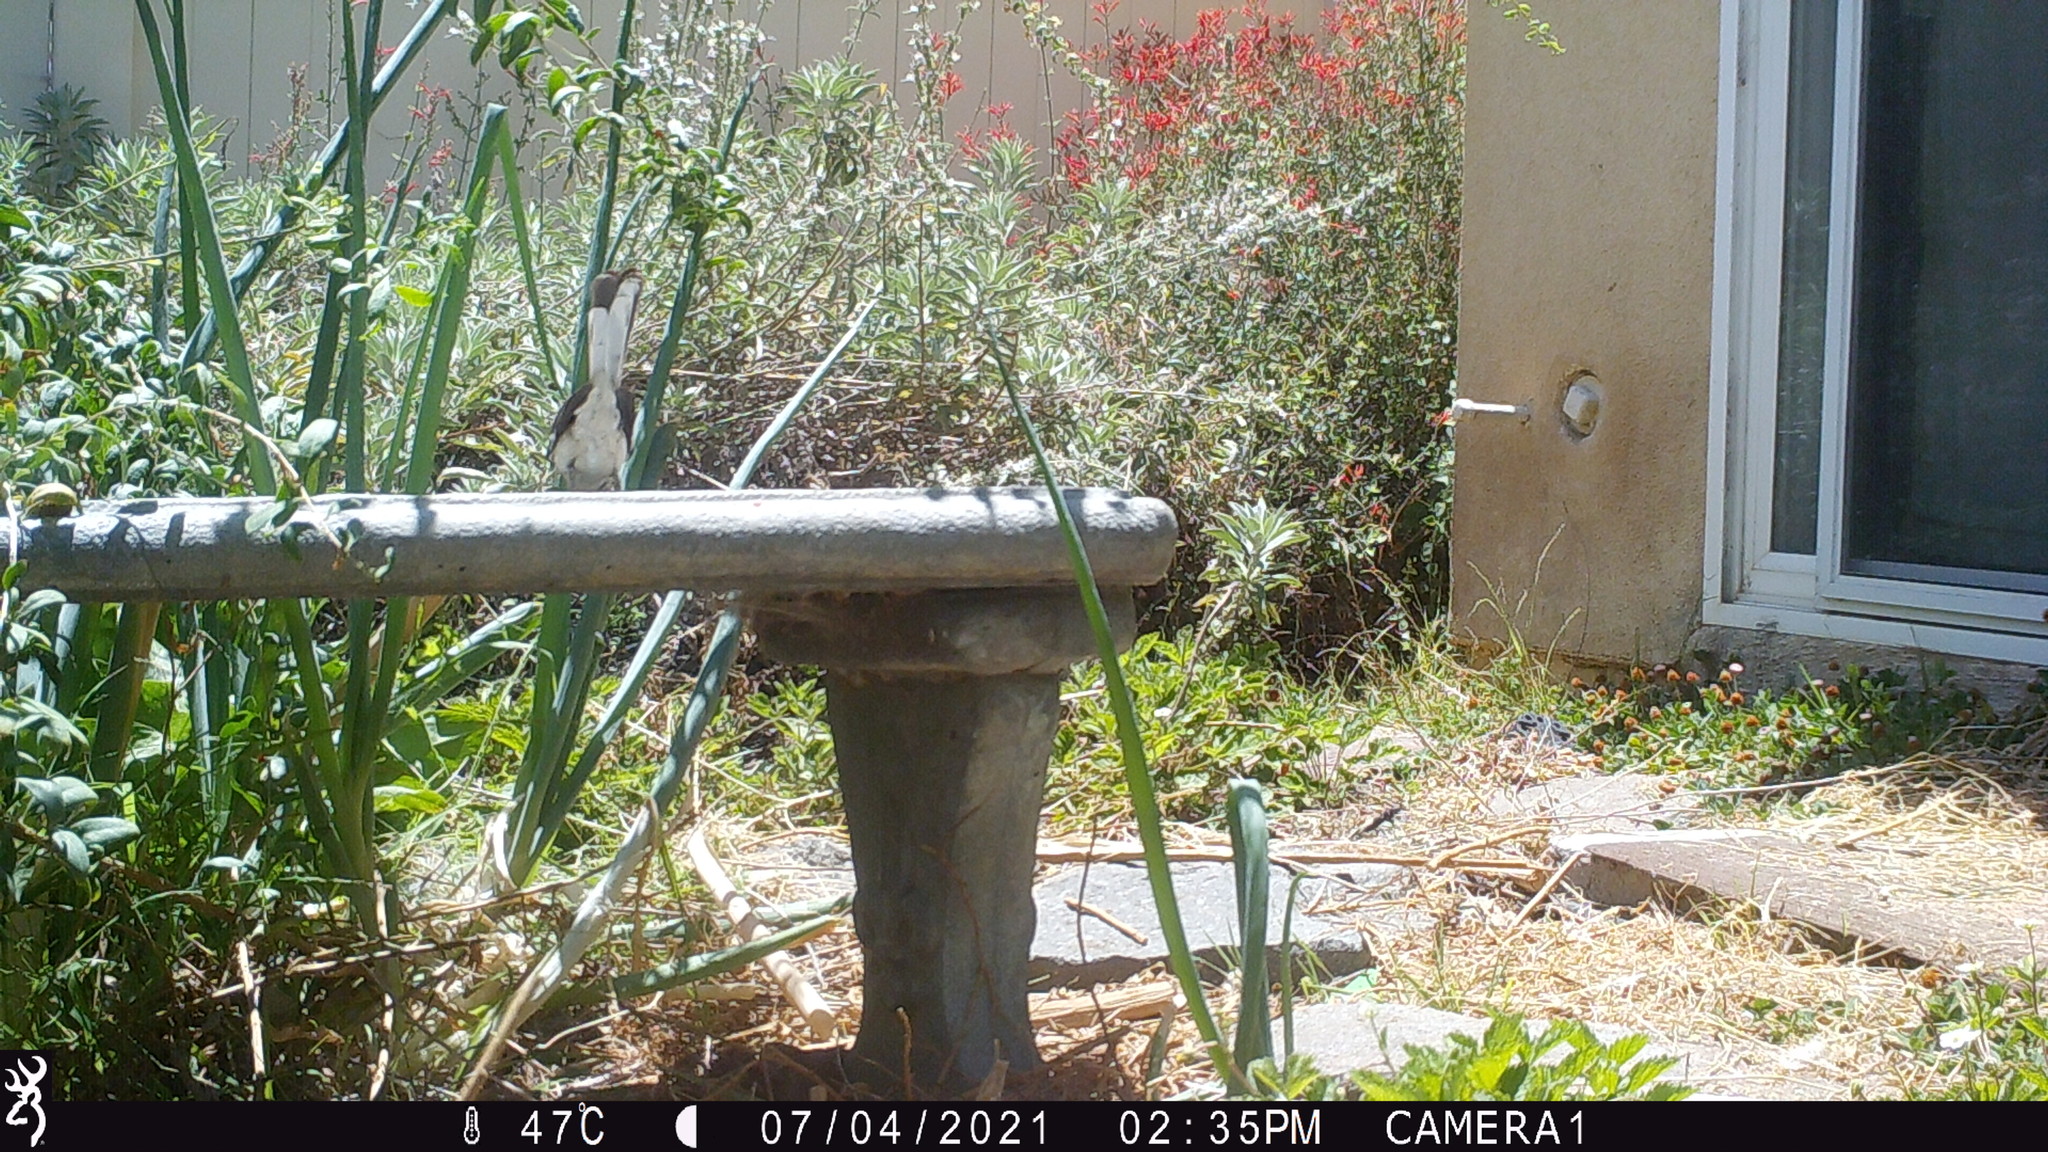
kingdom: Animalia
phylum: Chordata
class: Aves
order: Passeriformes
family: Mimidae
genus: Mimus
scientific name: Mimus polyglottos
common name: Northern mockingbird
